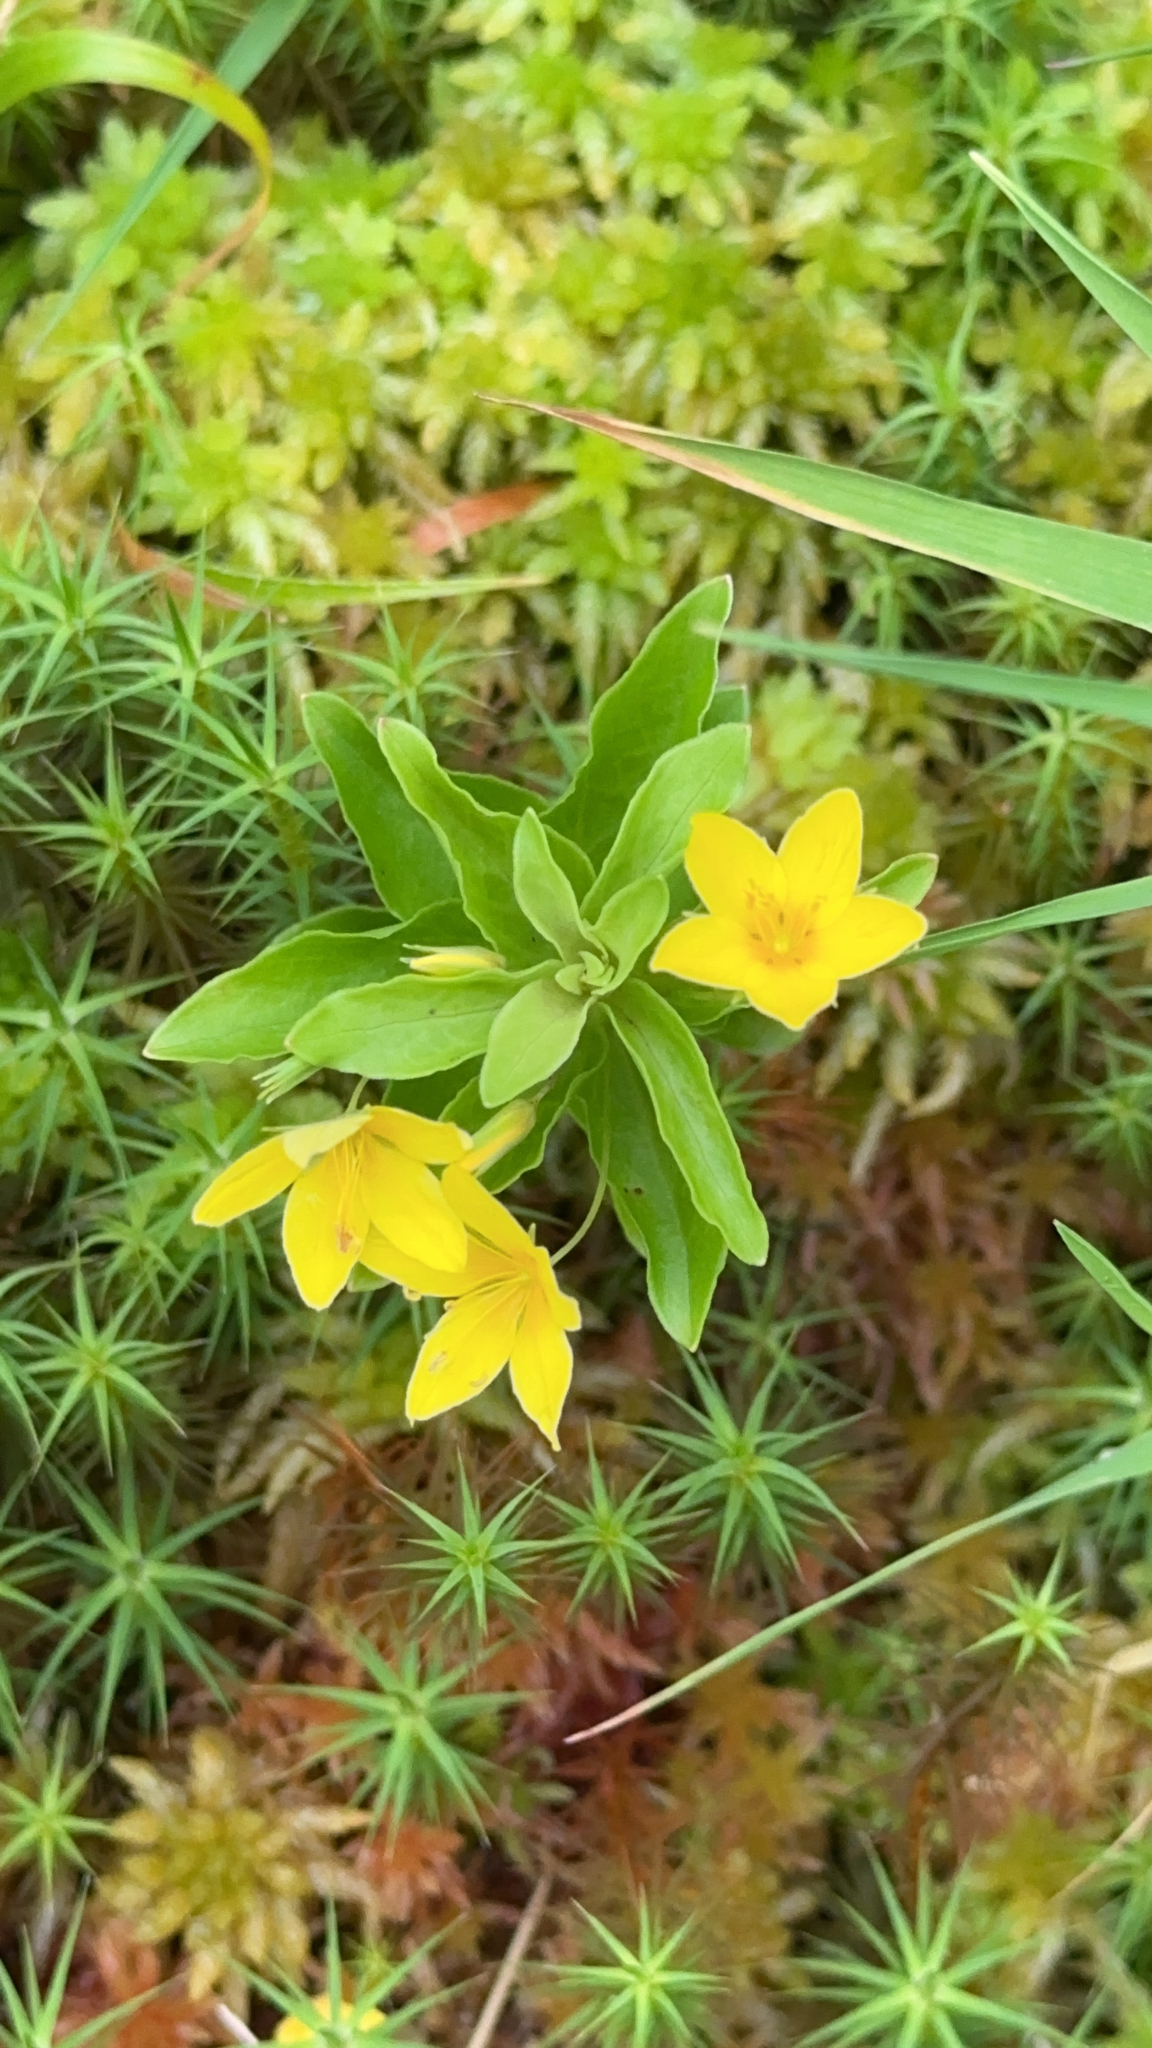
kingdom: Plantae
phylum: Tracheophyta
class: Magnoliopsida
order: Ericales
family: Primulaceae
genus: Lysimachia
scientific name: Lysimachia azorica
